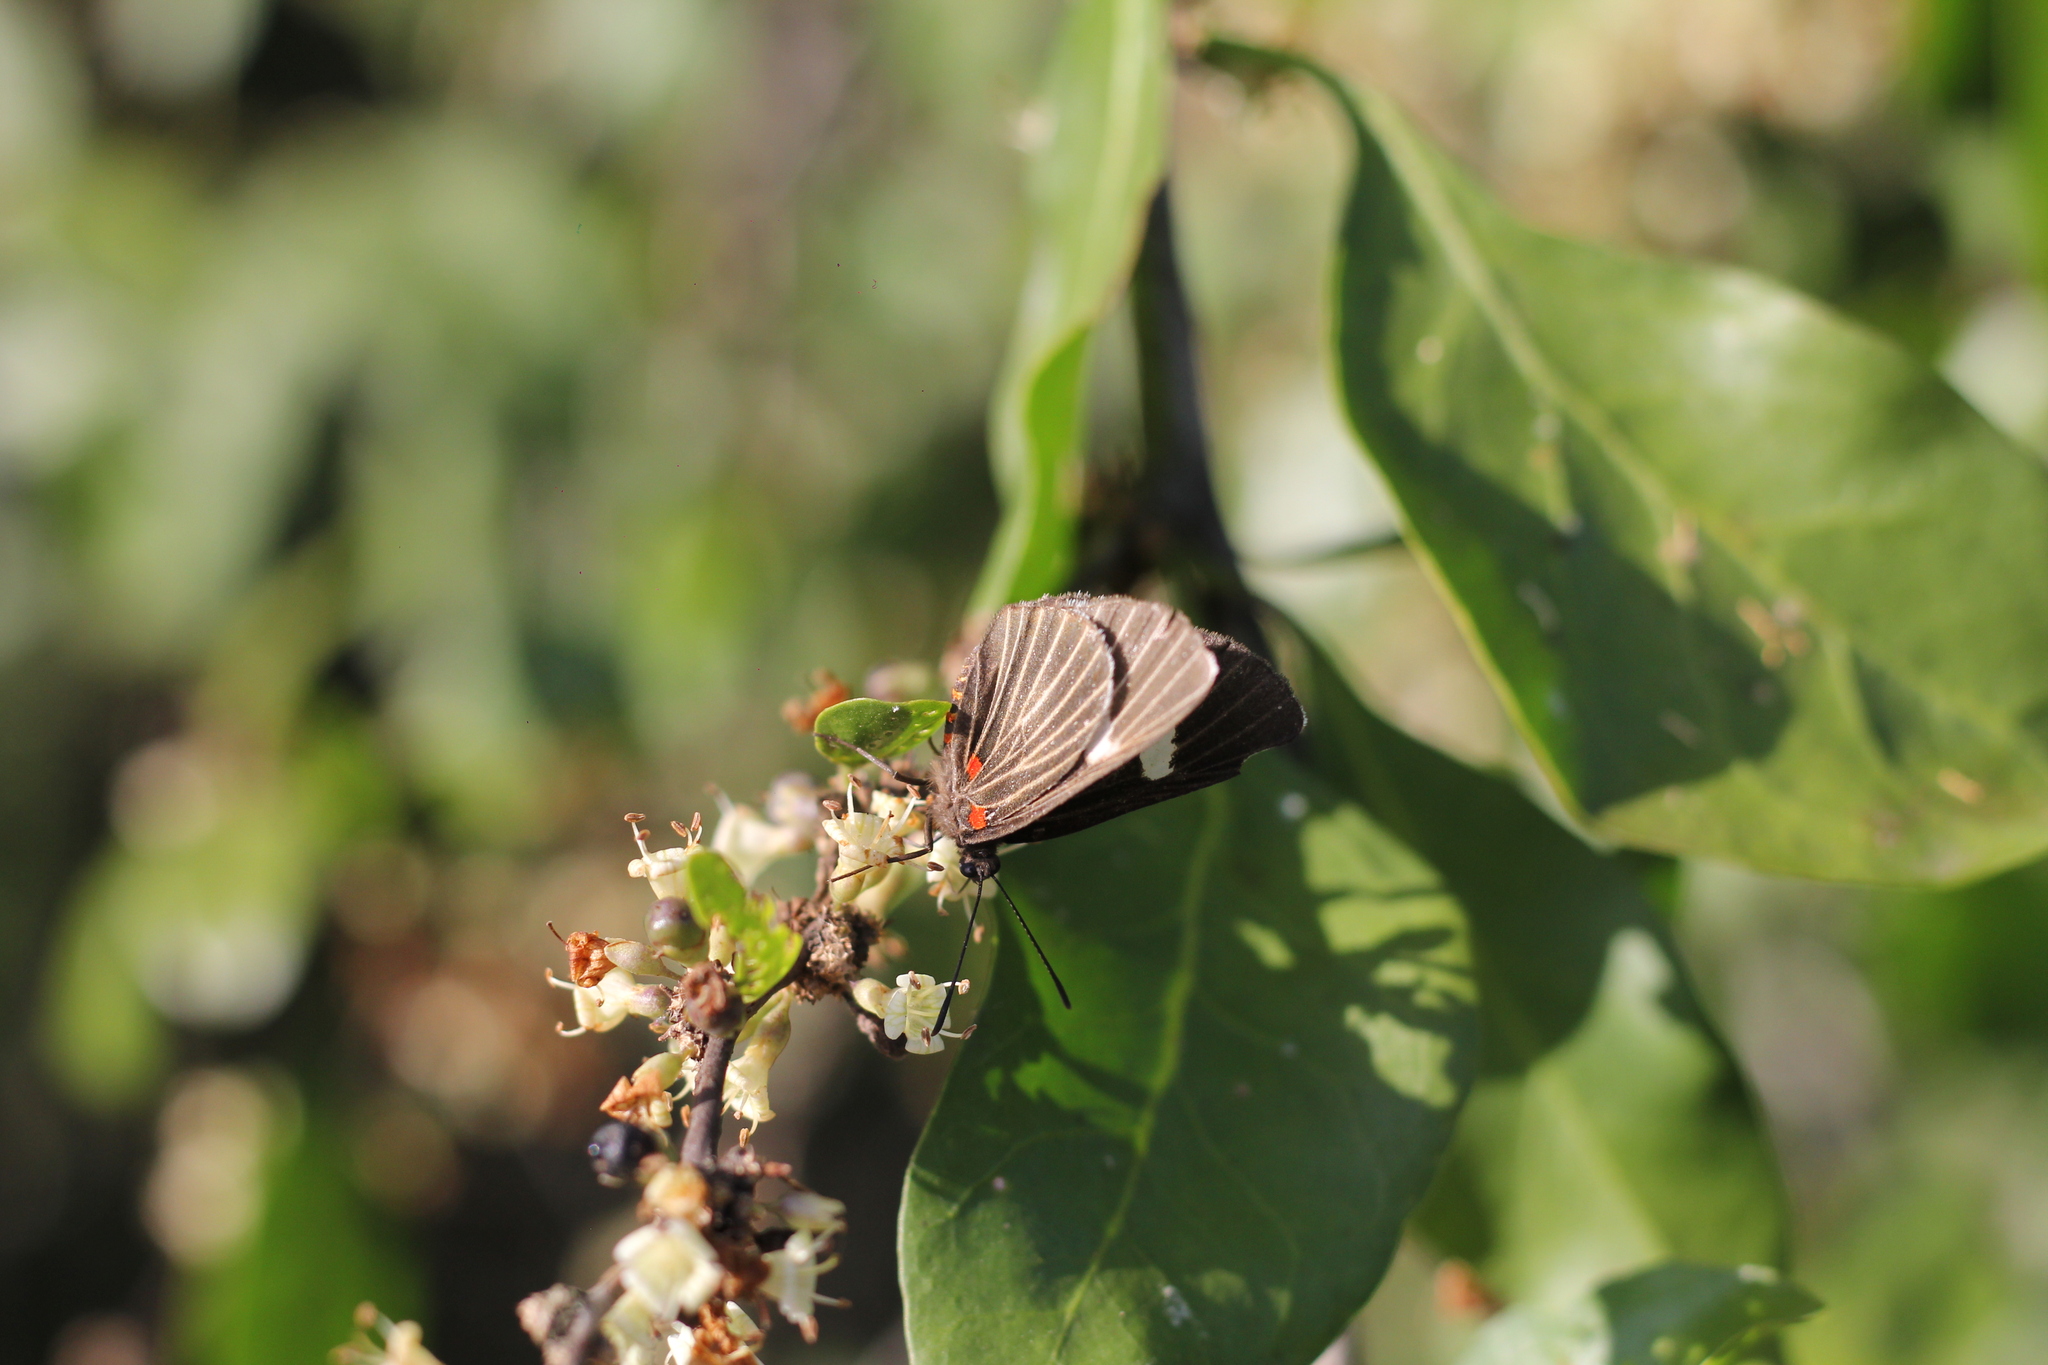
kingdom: Plantae
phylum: Tracheophyta
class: Magnoliopsida
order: Solanales
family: Solanaceae
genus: Lycium
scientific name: Lycium glomeratum
